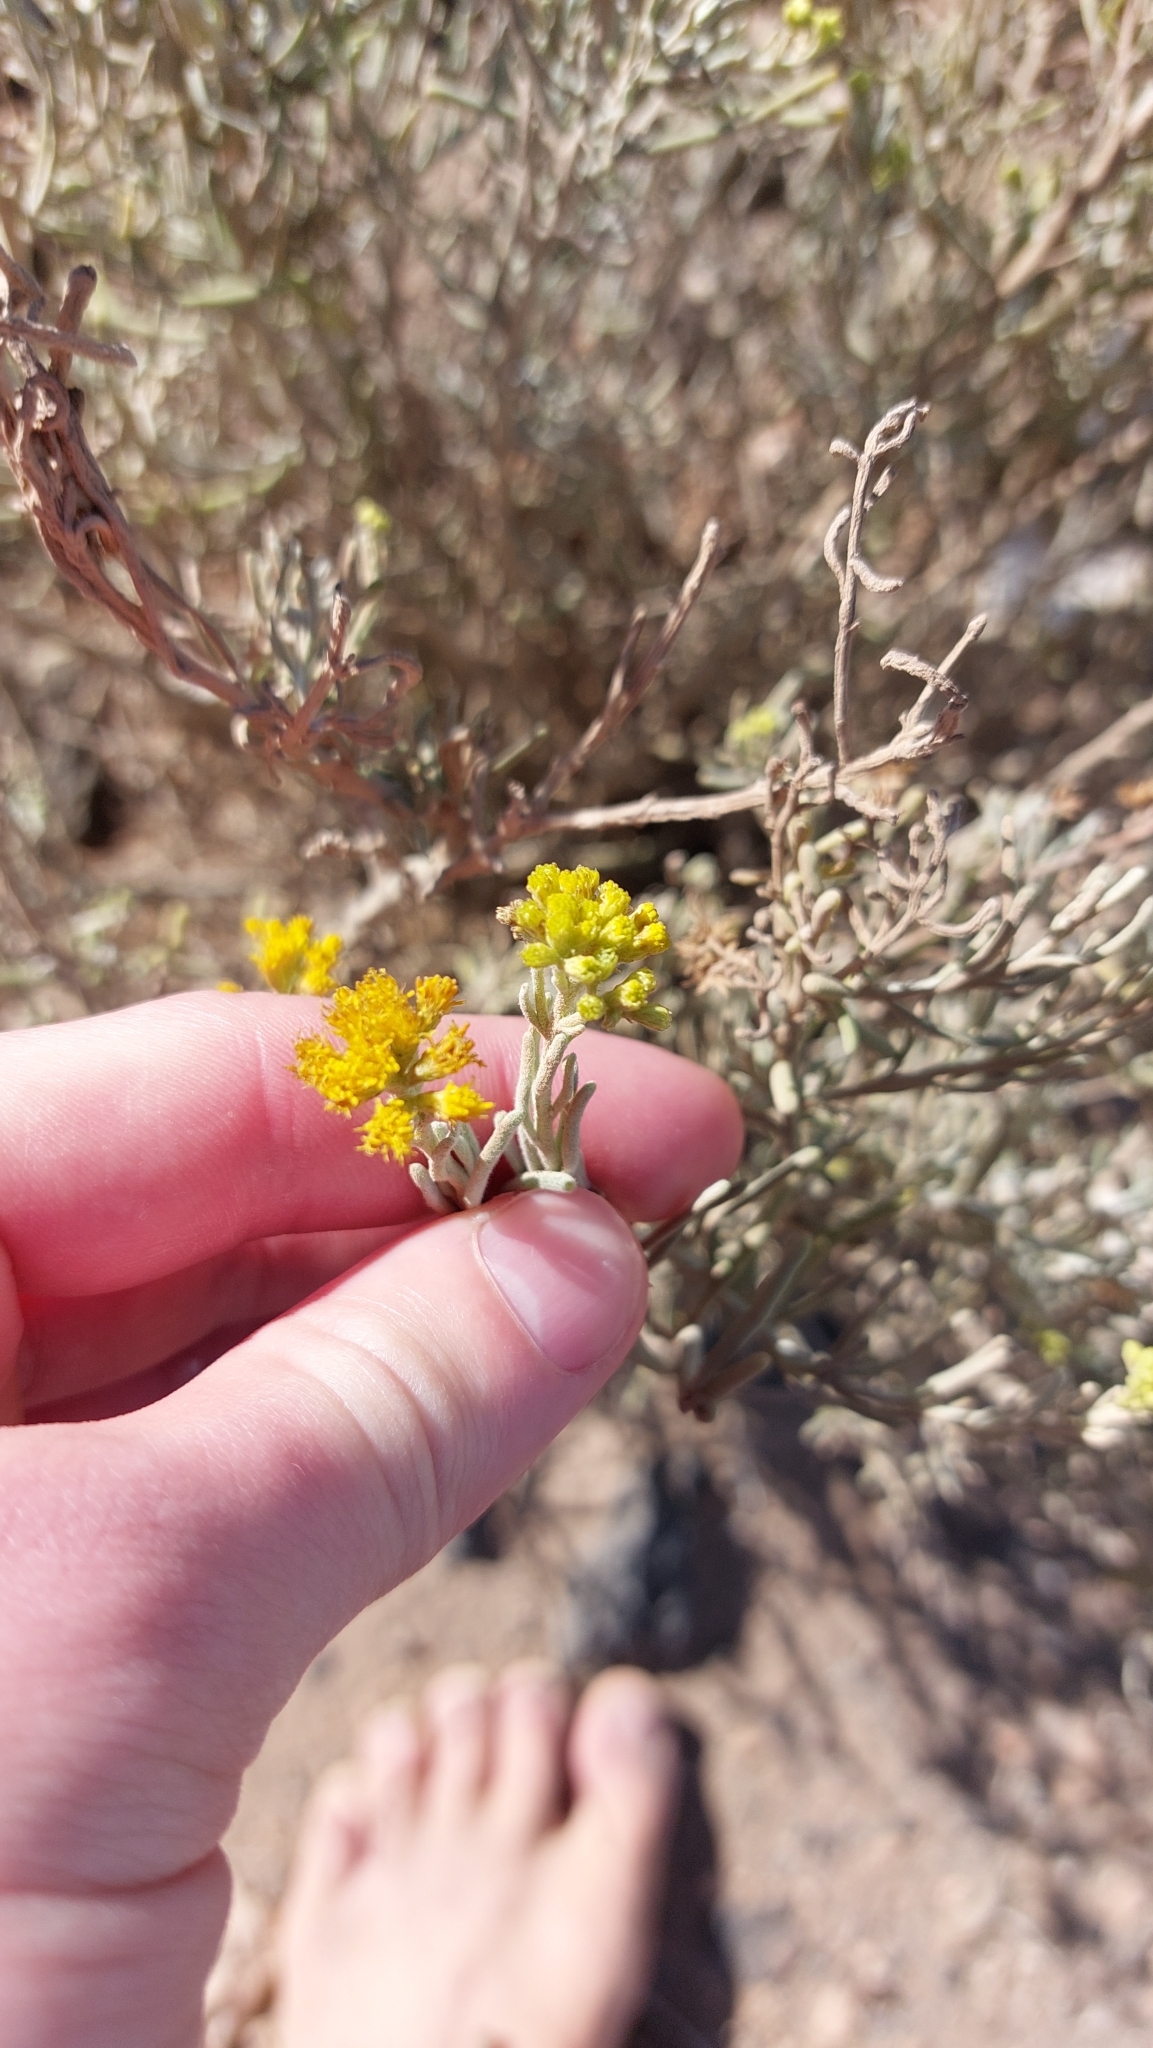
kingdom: Plantae
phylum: Tracheophyta
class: Magnoliopsida
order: Asterales
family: Asteraceae
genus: Schizogyne
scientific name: Schizogyne sericea
